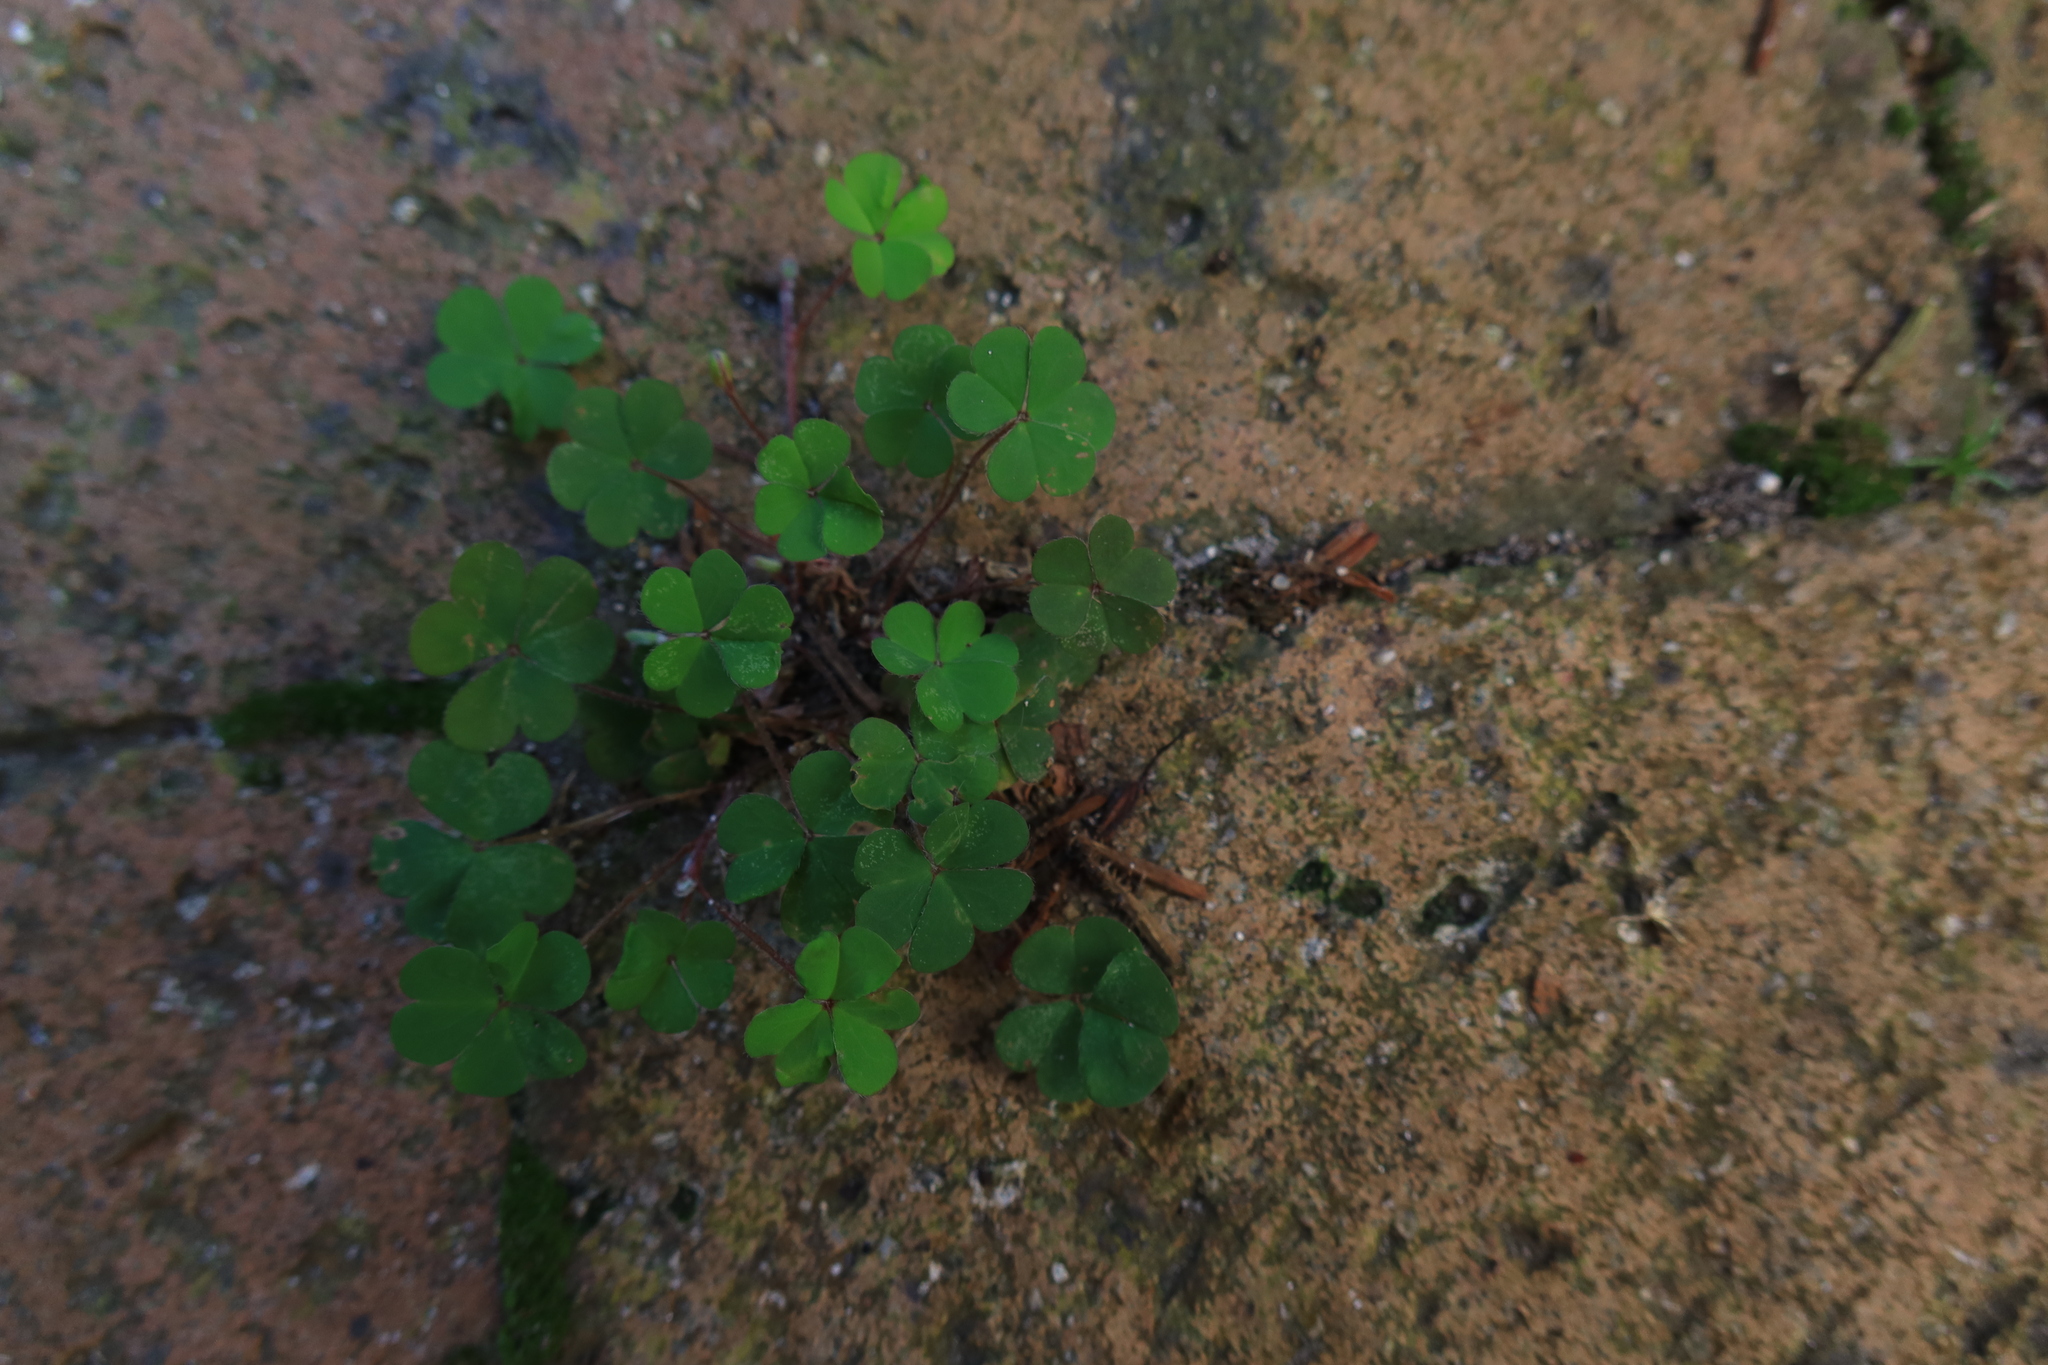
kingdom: Plantae
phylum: Tracheophyta
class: Magnoliopsida
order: Oxalidales
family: Oxalidaceae
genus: Oxalis
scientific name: Oxalis corniculata
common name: Procumbent yellow-sorrel
